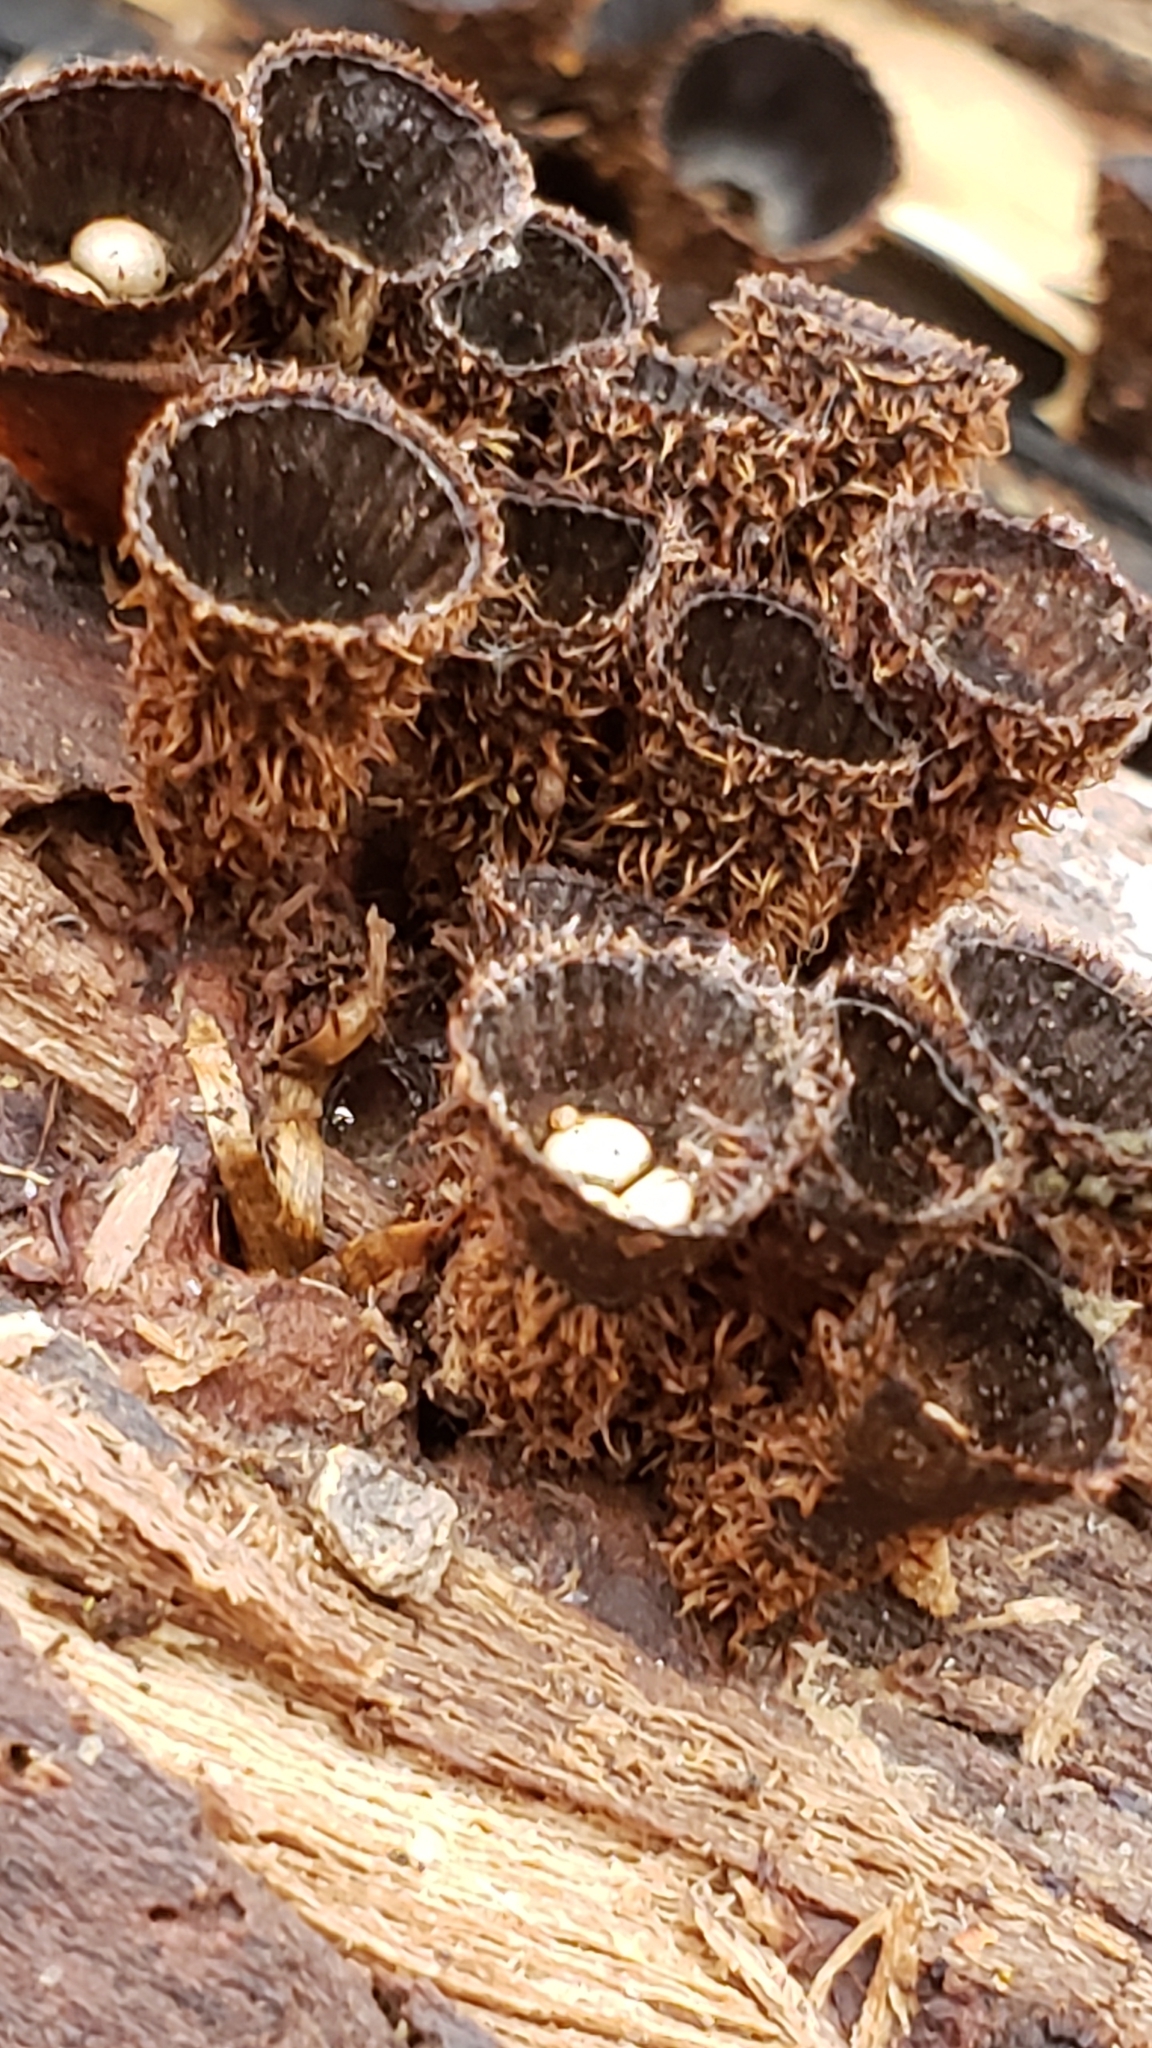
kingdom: Fungi
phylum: Basidiomycota
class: Agaricomycetes
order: Agaricales
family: Agaricaceae
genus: Cyathus
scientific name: Cyathus striatus
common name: Fluted bird's nest
